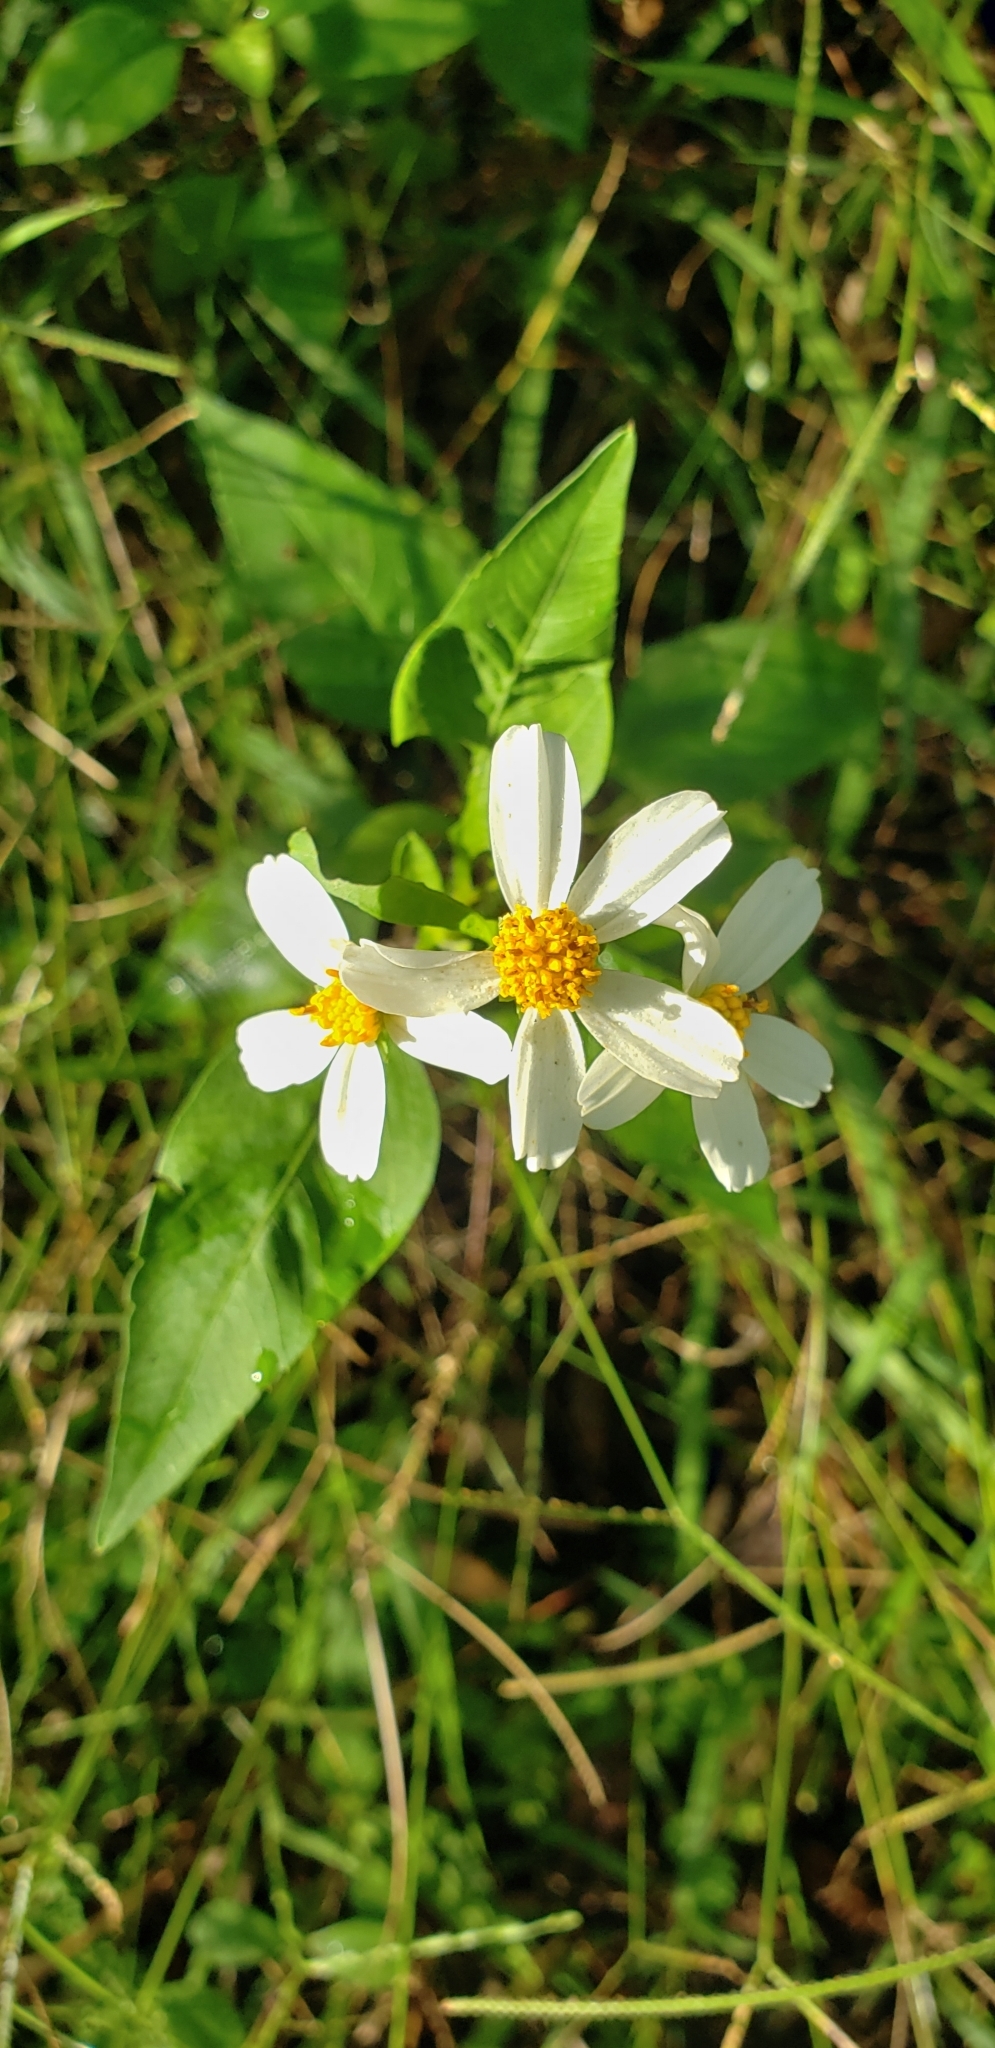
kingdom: Plantae
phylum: Tracheophyta
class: Magnoliopsida
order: Asterales
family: Asteraceae
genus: Bidens
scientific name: Bidens alba
